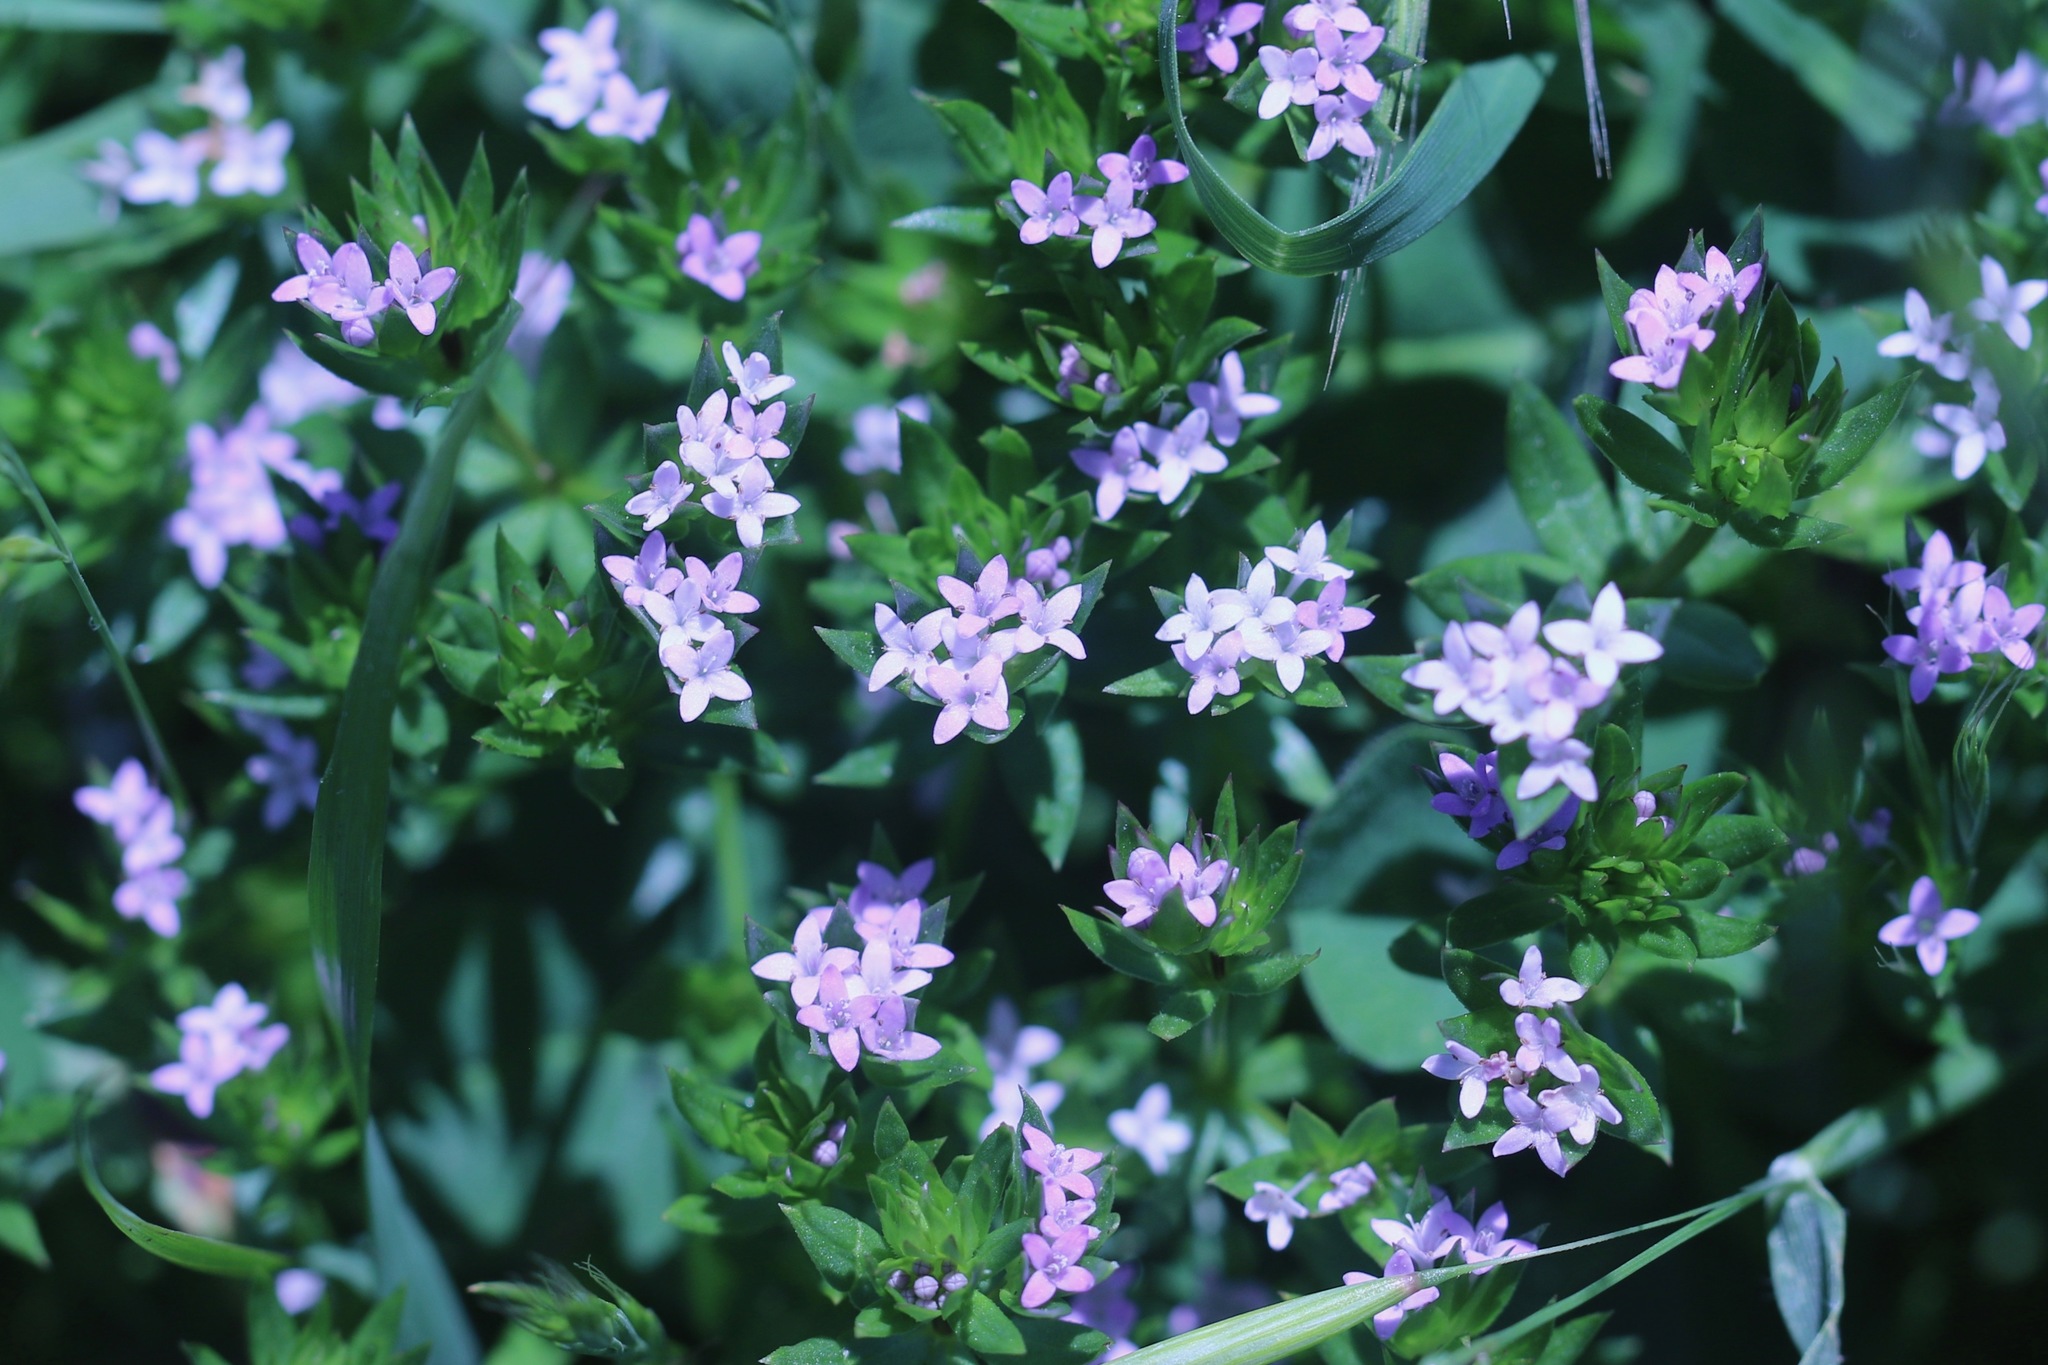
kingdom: Plantae
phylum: Tracheophyta
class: Magnoliopsida
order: Gentianales
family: Rubiaceae
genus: Sherardia
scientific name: Sherardia arvensis
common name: Field madder
